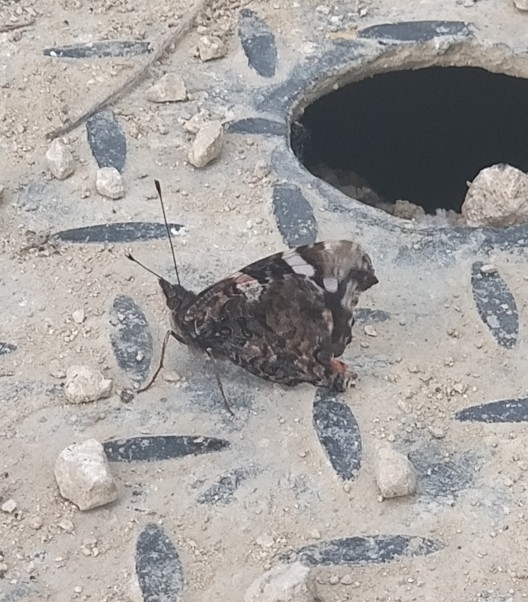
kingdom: Animalia
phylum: Arthropoda
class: Insecta
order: Lepidoptera
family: Nymphalidae
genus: Vanessa
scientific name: Vanessa atalanta
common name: Red admiral
